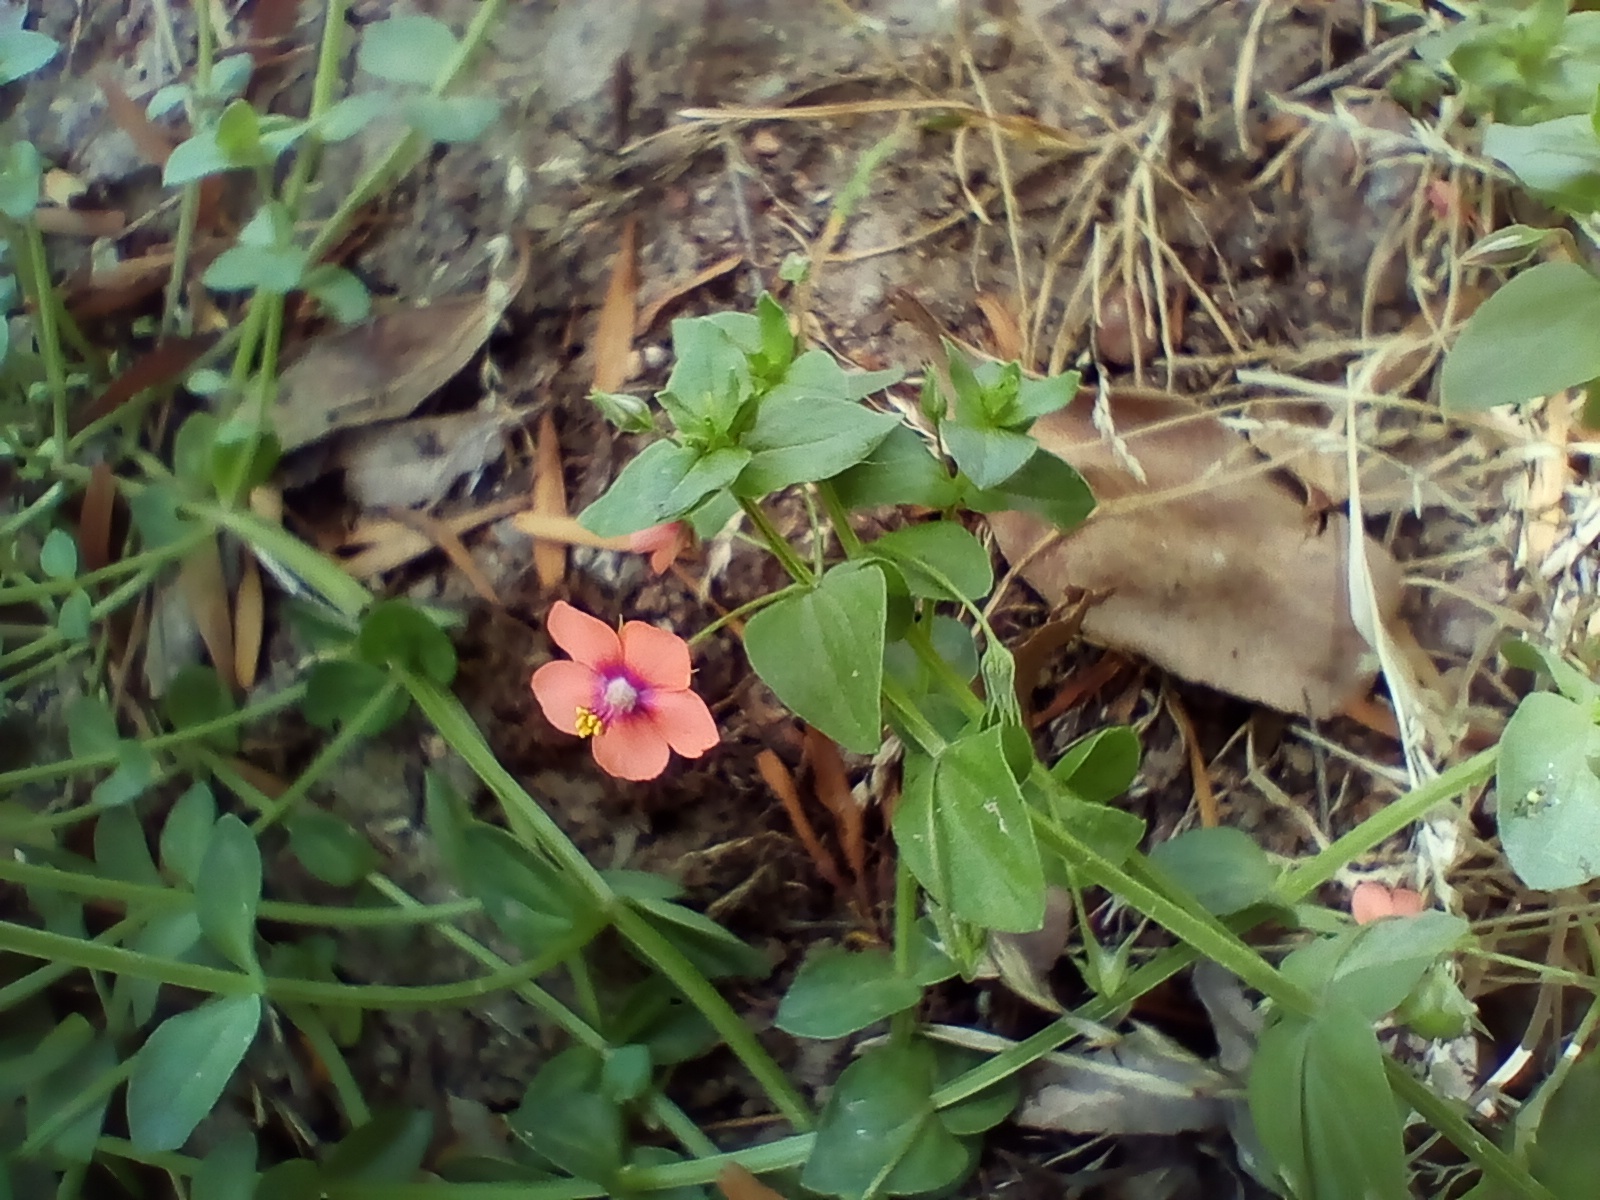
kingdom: Plantae
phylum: Tracheophyta
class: Magnoliopsida
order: Ericales
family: Primulaceae
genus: Lysimachia
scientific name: Lysimachia arvensis
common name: Scarlet pimpernel
